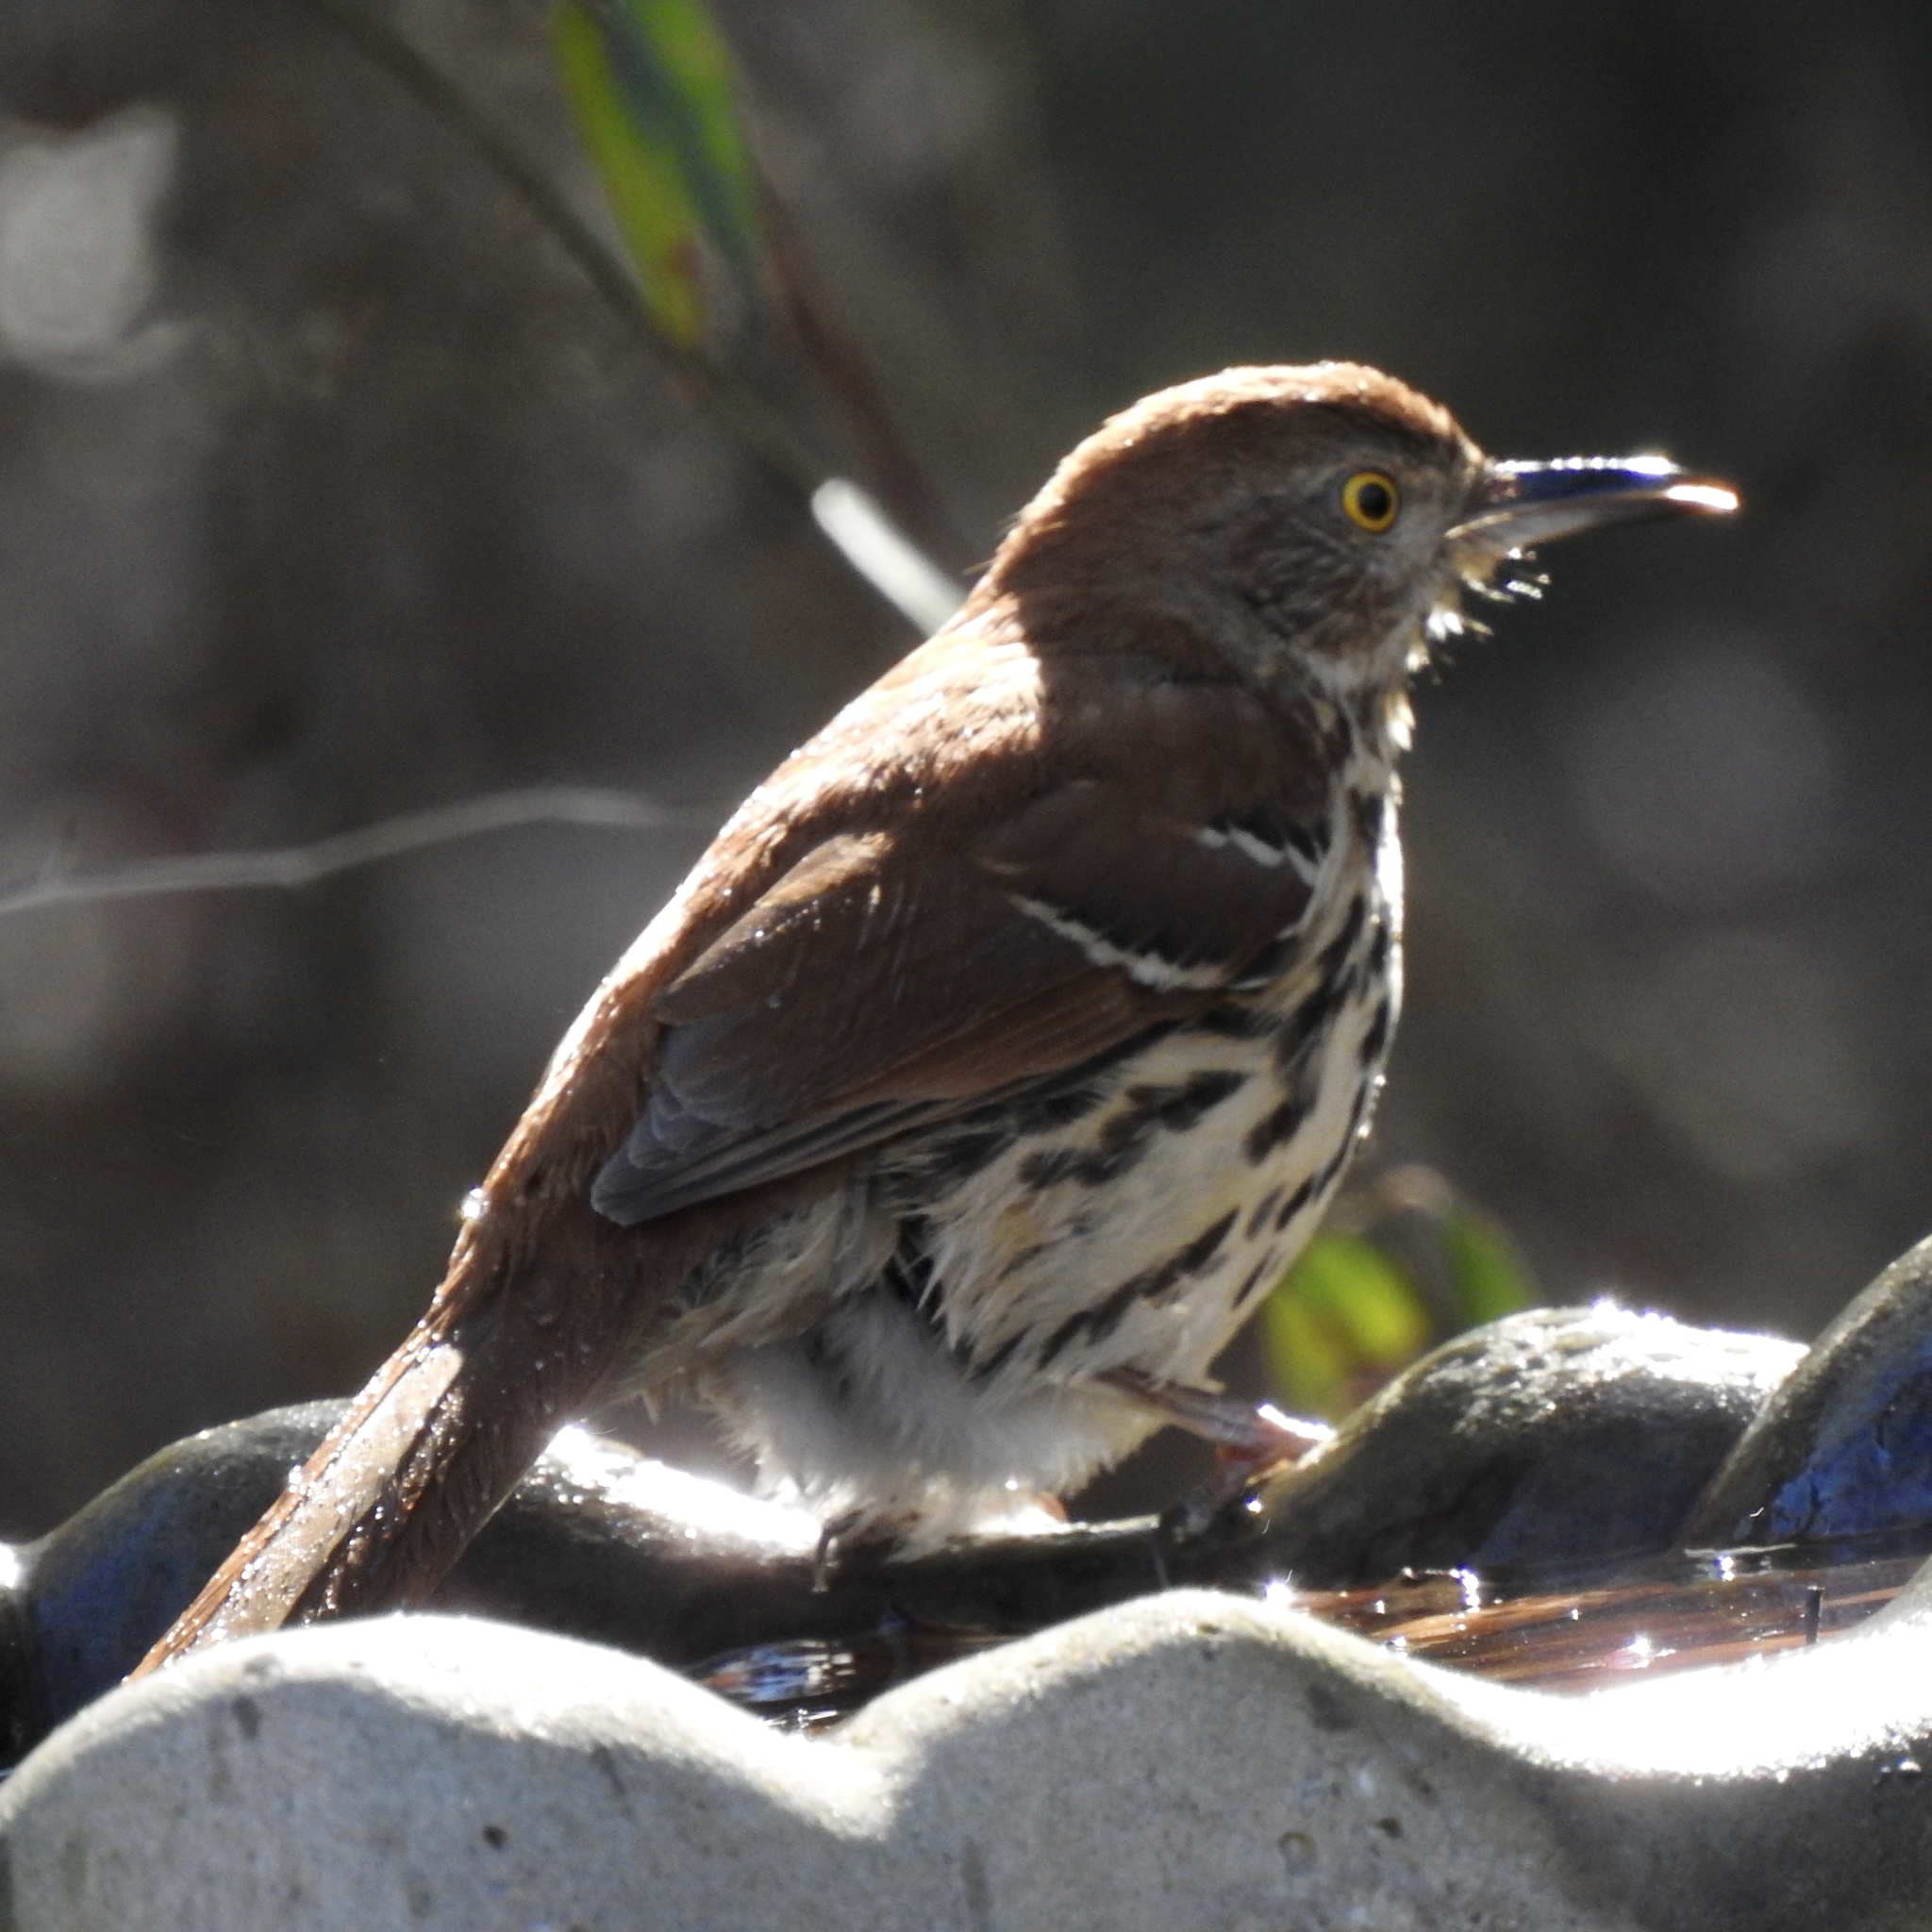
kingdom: Animalia
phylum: Chordata
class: Aves
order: Passeriformes
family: Mimidae
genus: Toxostoma
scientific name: Toxostoma rufum
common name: Brown thrasher
